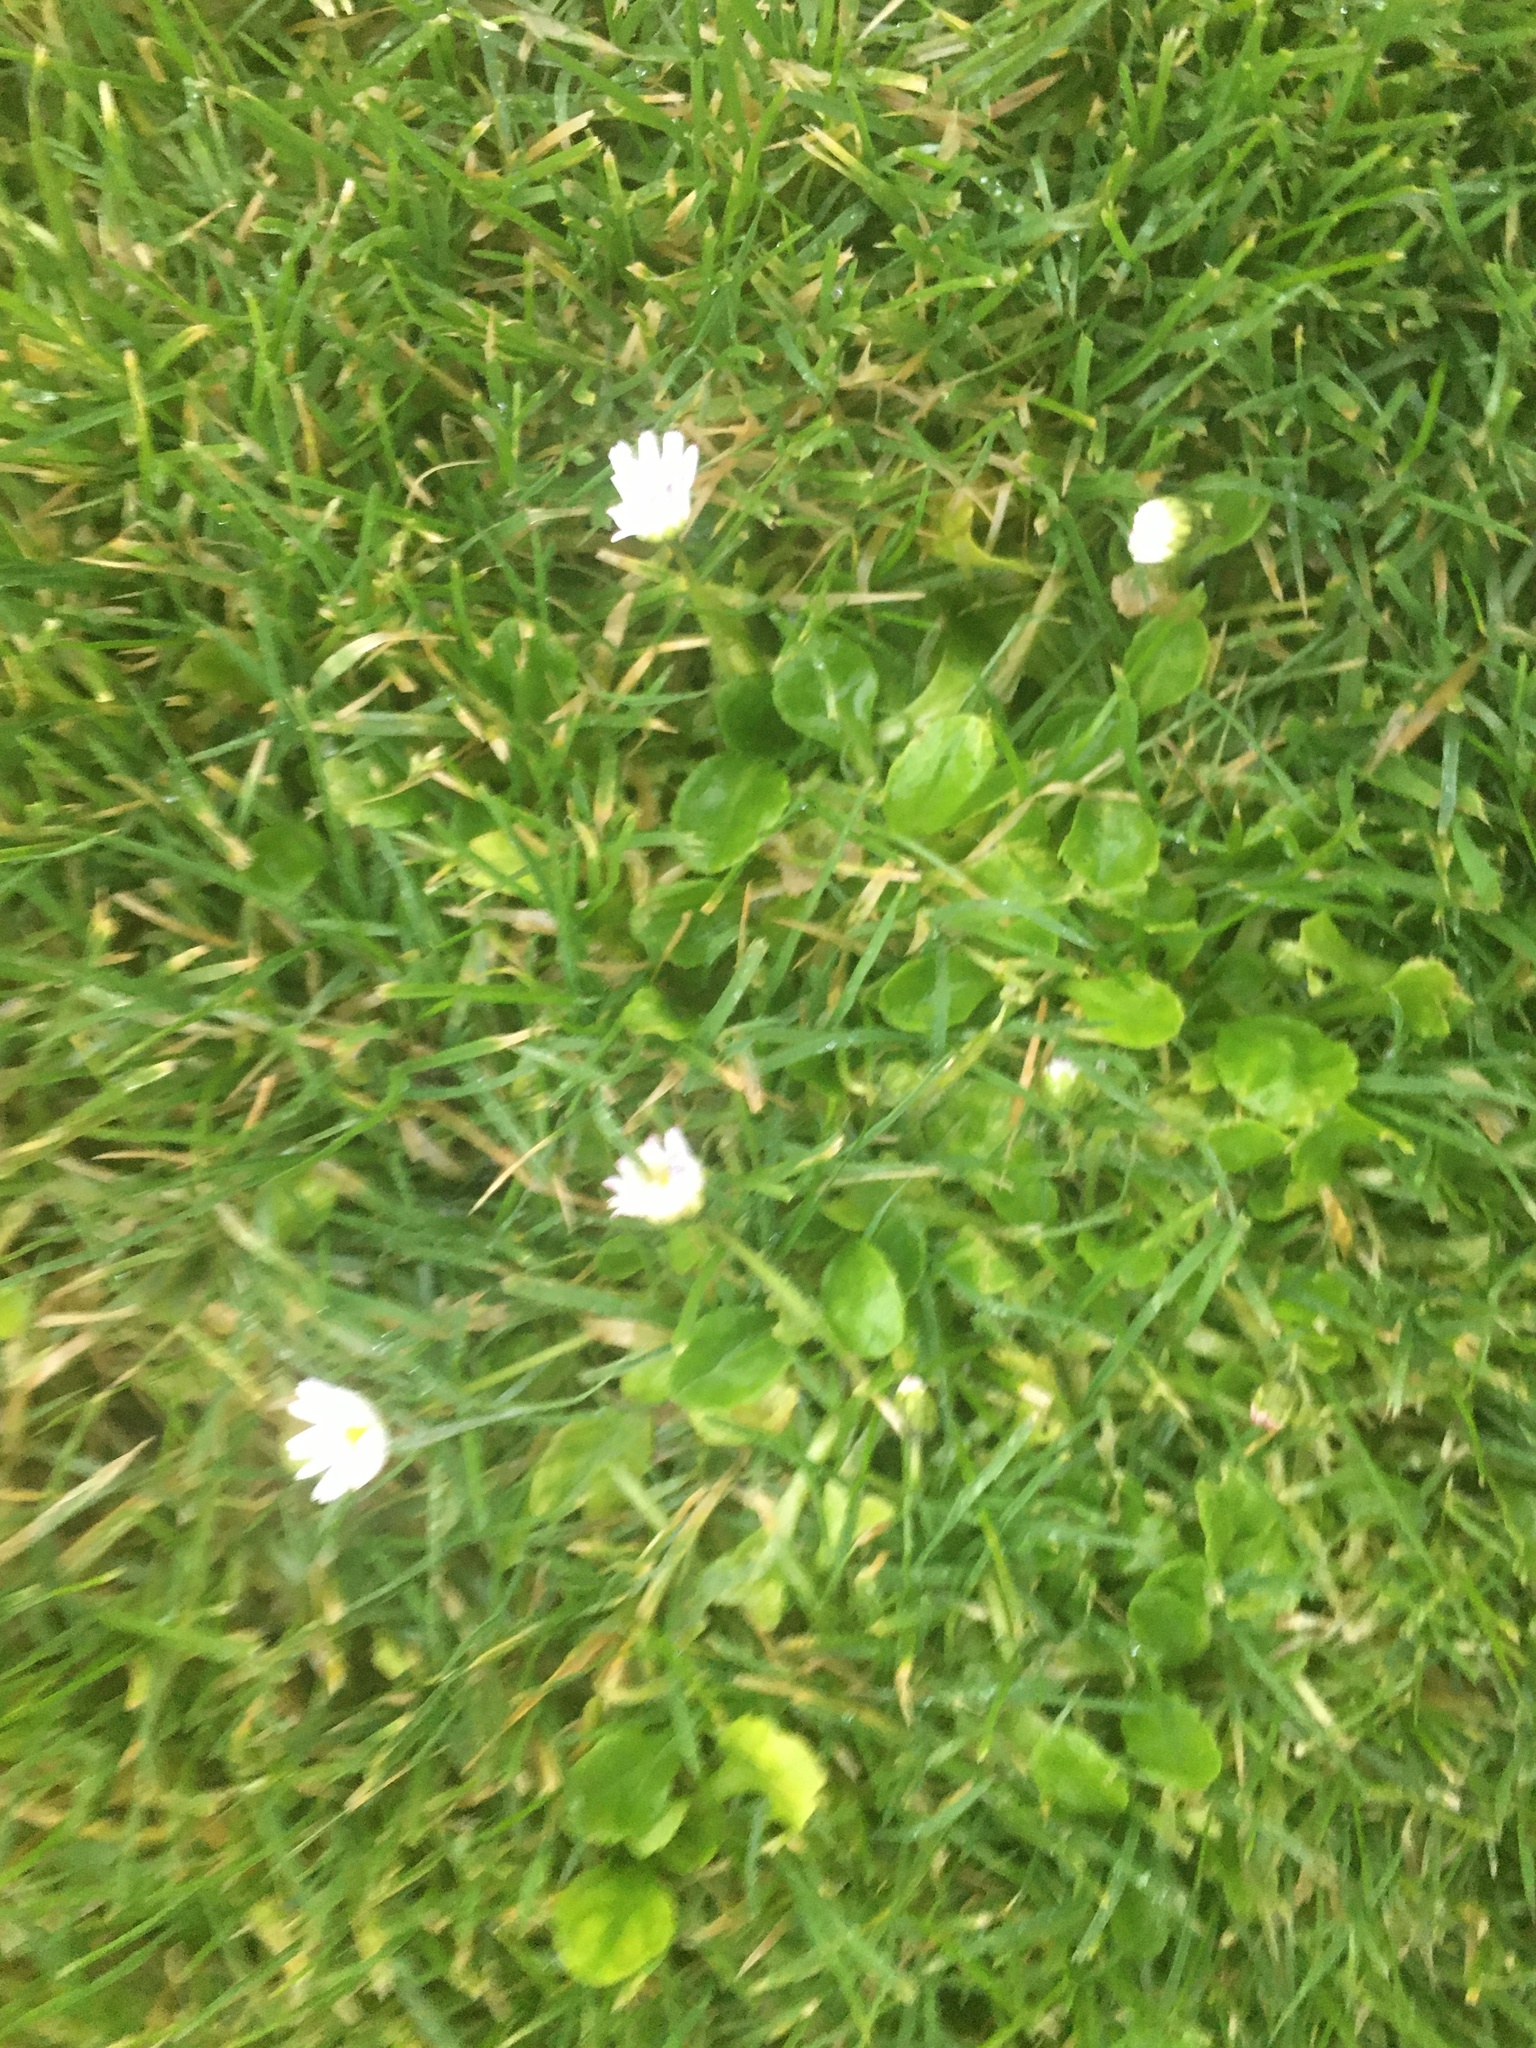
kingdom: Plantae
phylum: Tracheophyta
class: Magnoliopsida
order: Asterales
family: Asteraceae
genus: Bellis
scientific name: Bellis perennis
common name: Lawndaisy
